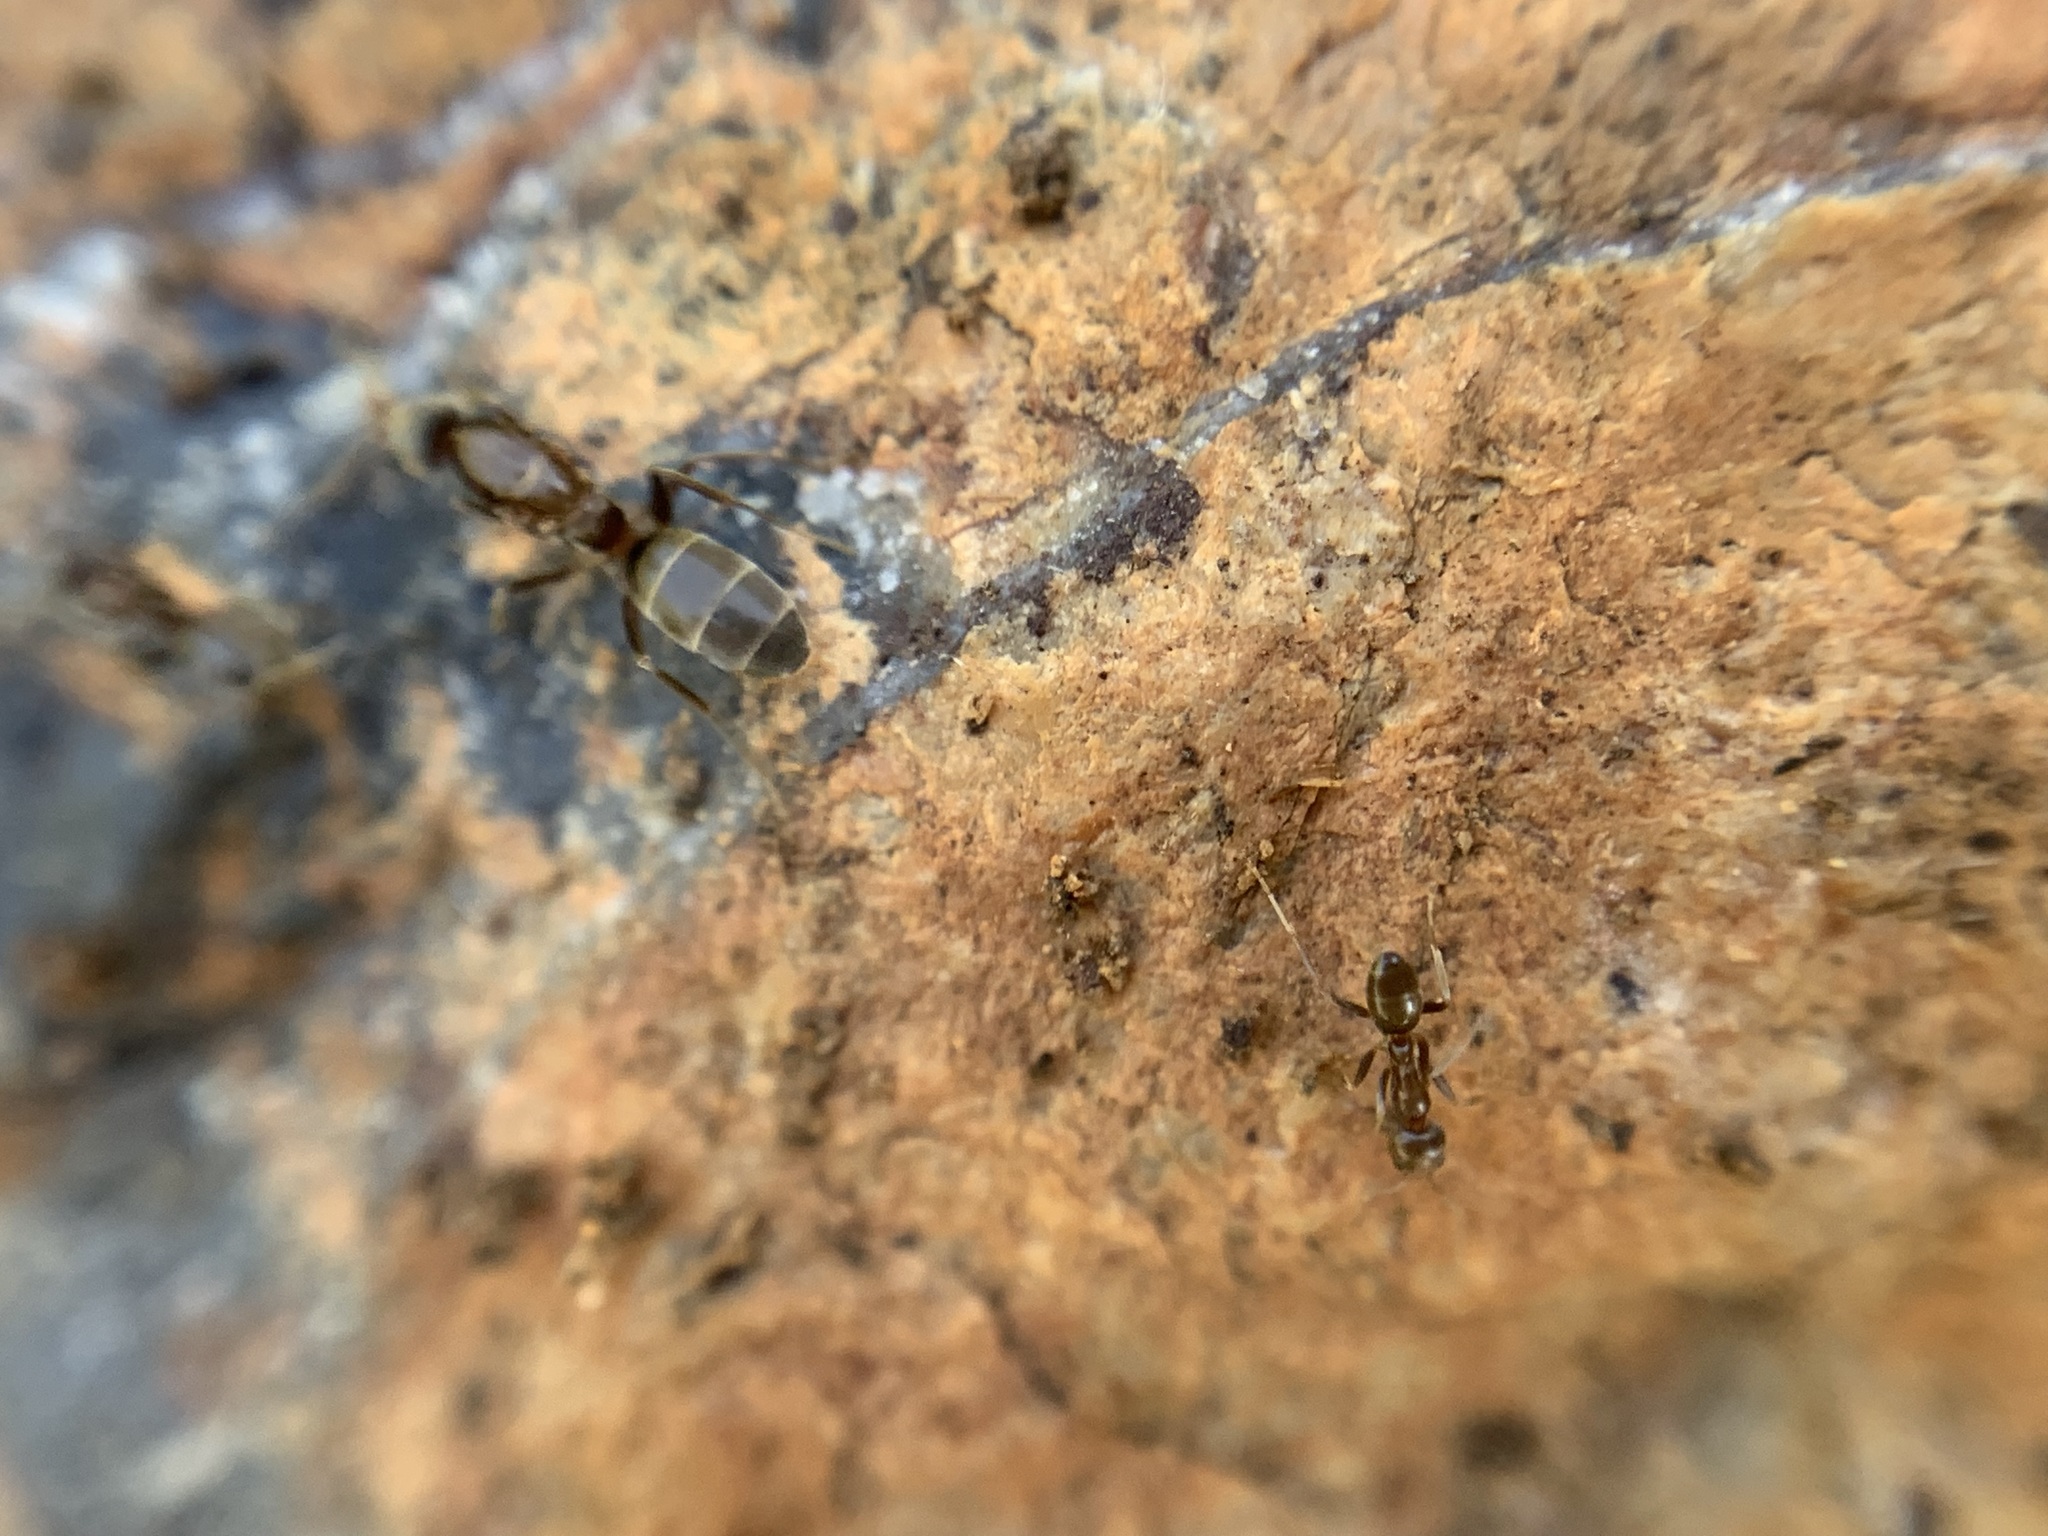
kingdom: Animalia
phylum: Arthropoda
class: Insecta
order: Hymenoptera
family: Formicidae
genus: Linepithema
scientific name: Linepithema humile
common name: Argentine ant
